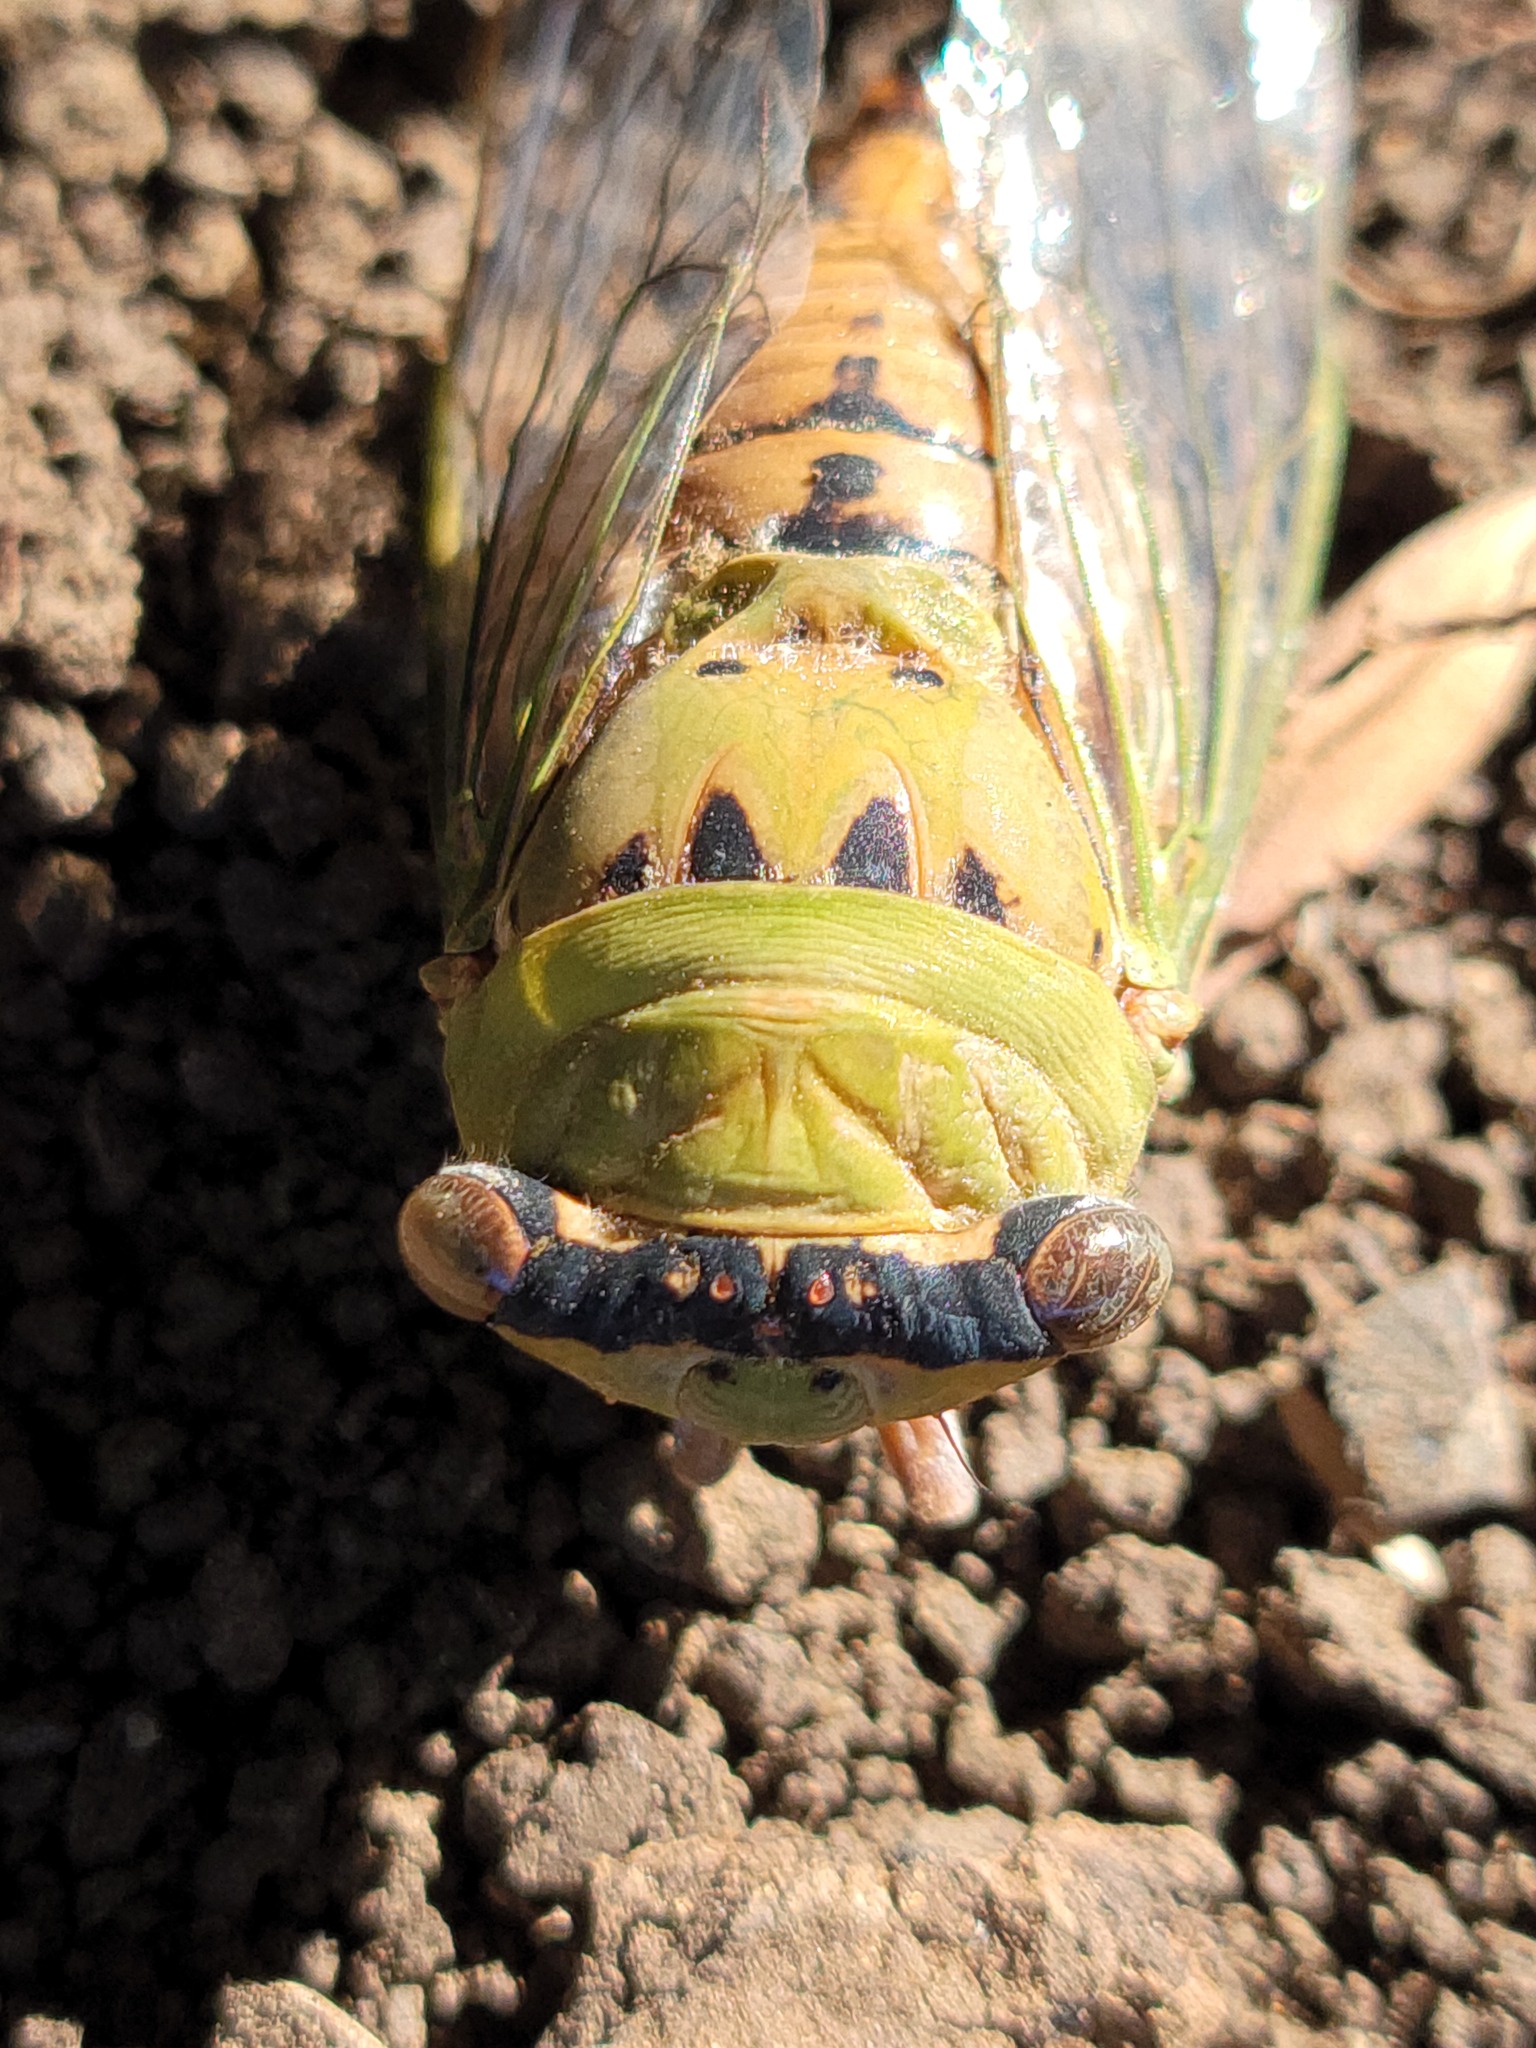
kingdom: Animalia
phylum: Arthropoda
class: Insecta
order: Hemiptera
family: Cicadidae
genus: Neotibicen
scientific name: Neotibicen superbus
